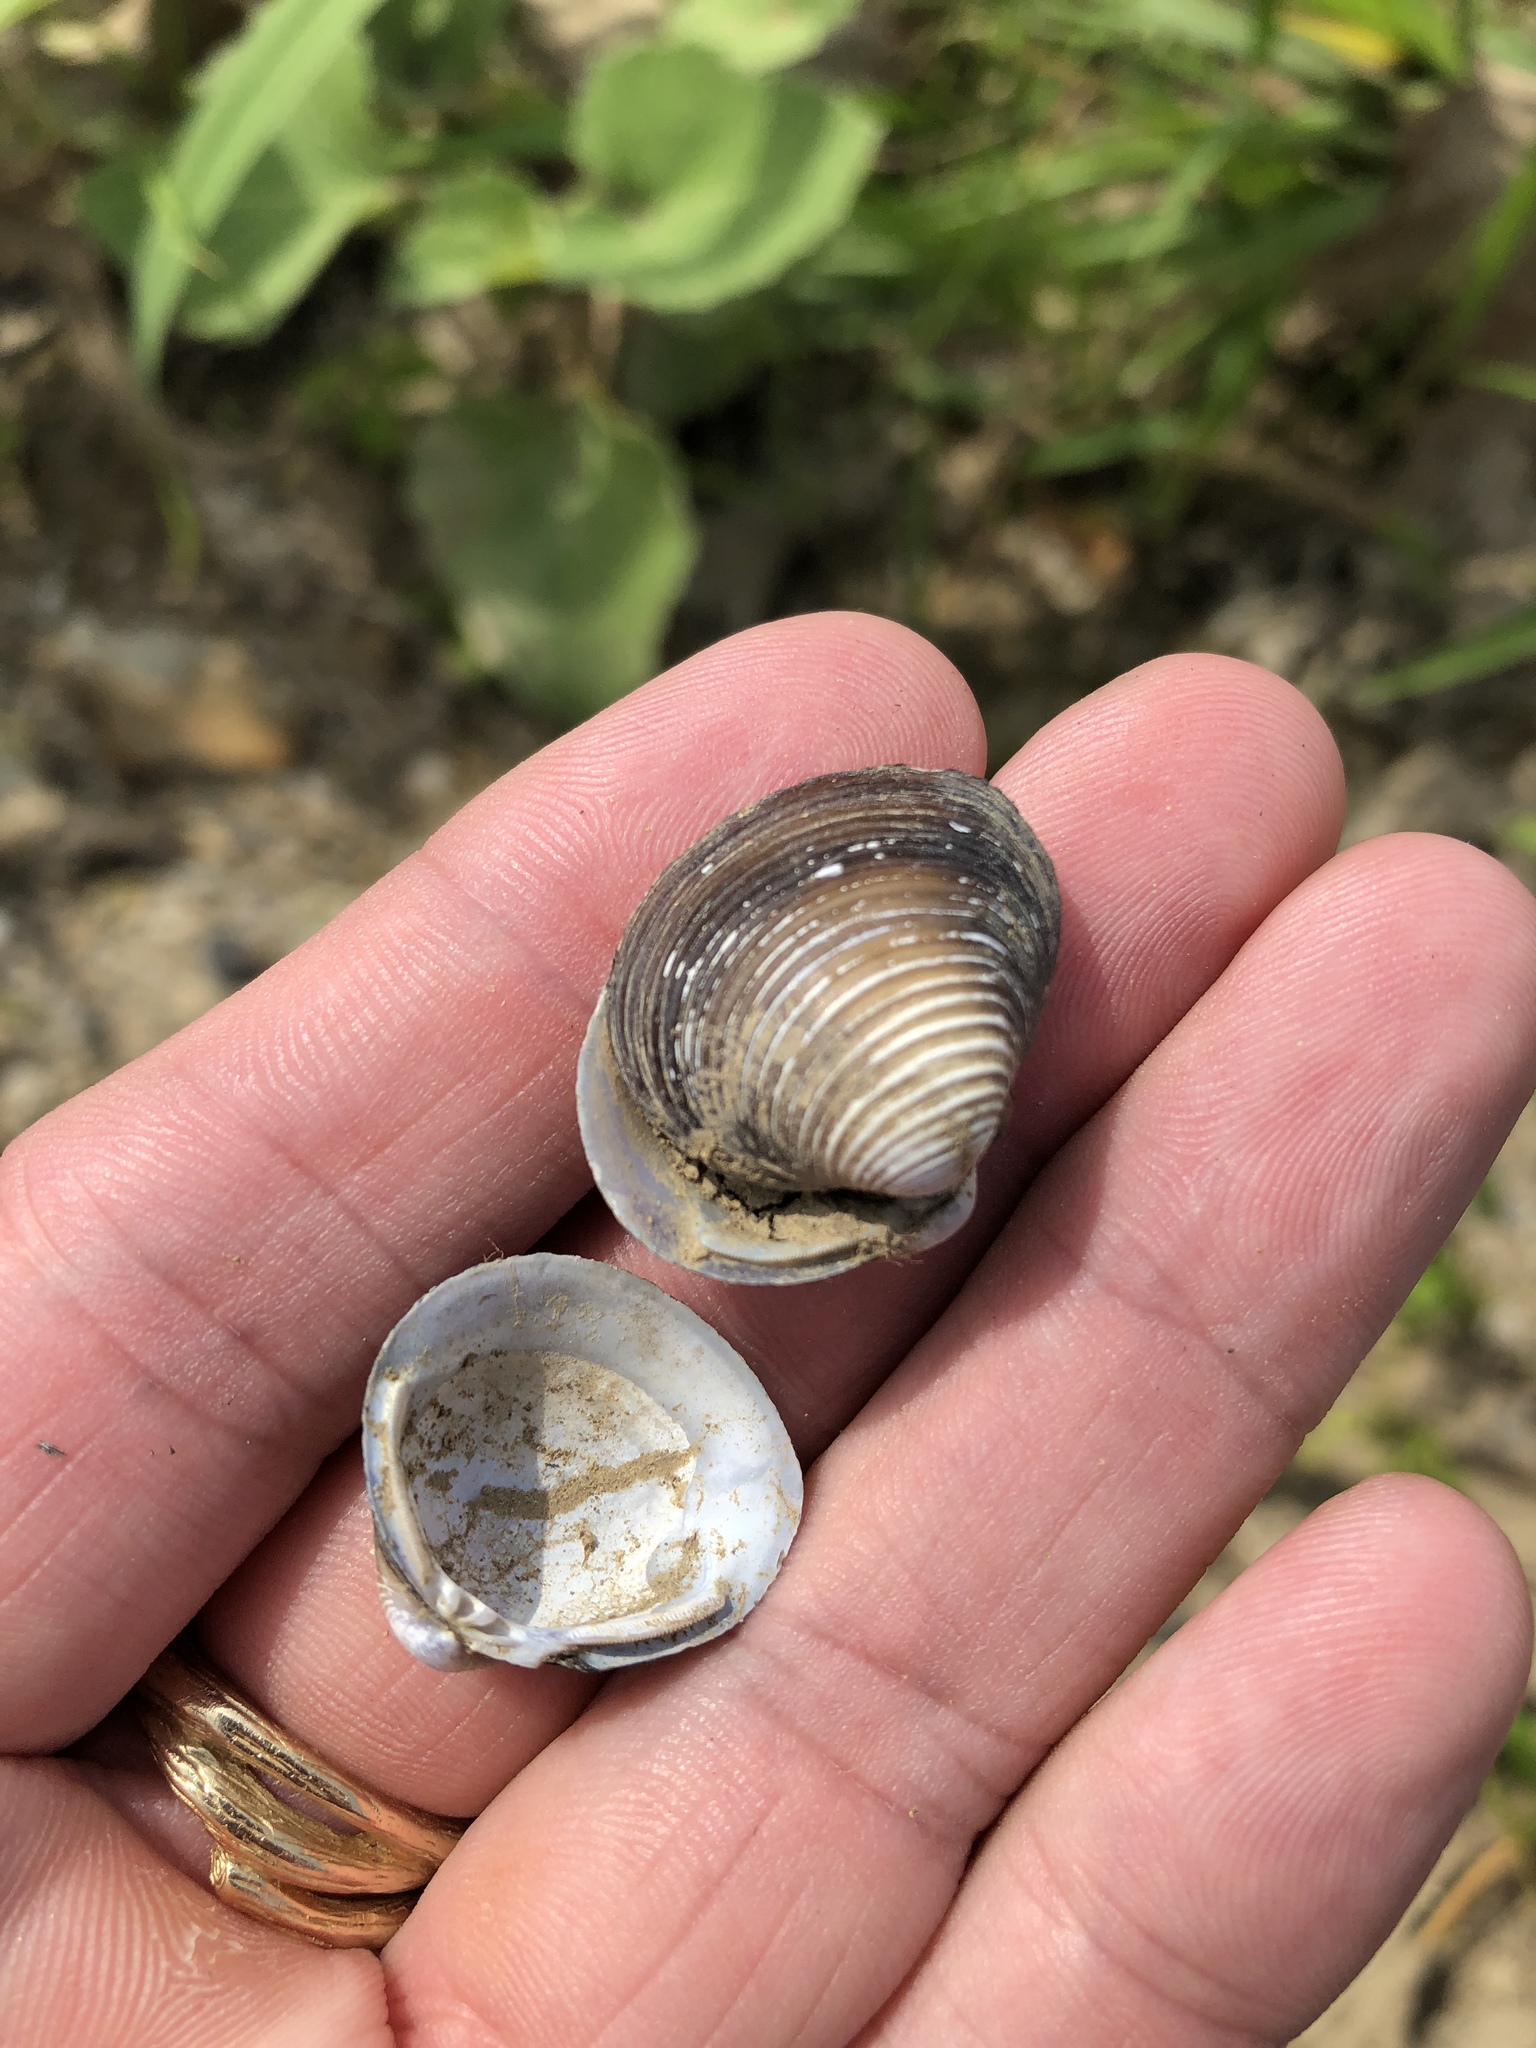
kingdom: Animalia
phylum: Mollusca
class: Bivalvia
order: Venerida
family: Cyrenidae
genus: Corbicula
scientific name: Corbicula fluminea
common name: Asian clam
